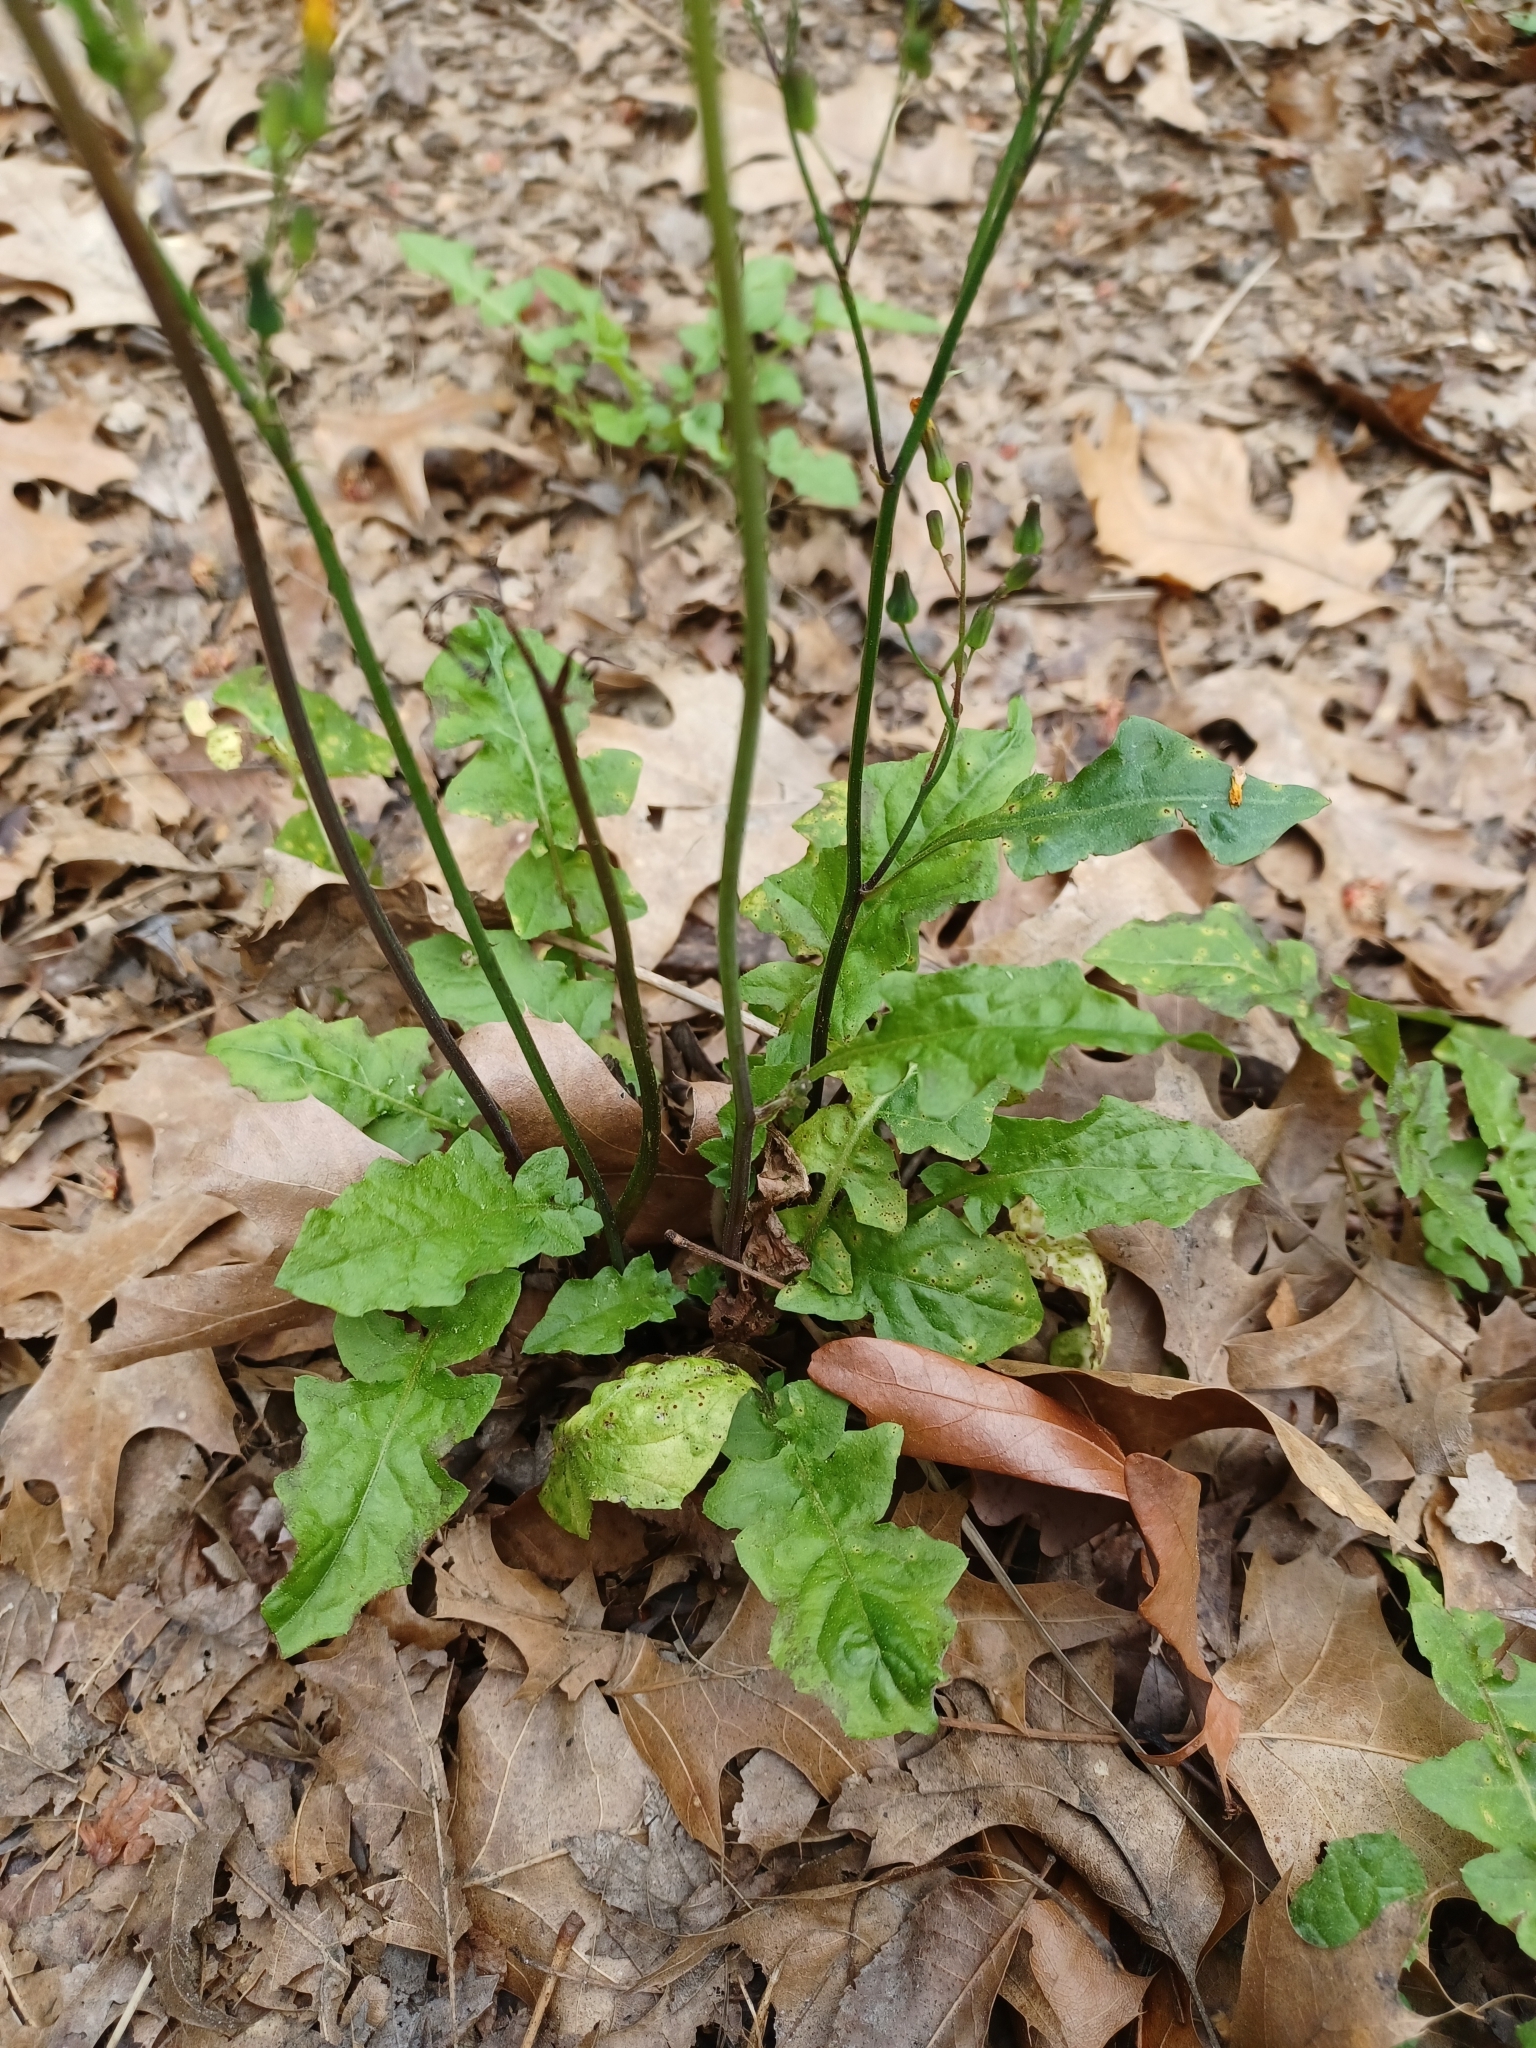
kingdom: Plantae
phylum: Tracheophyta
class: Magnoliopsida
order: Asterales
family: Asteraceae
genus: Youngia
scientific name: Youngia japonica
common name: Oriental false hawksbeard
